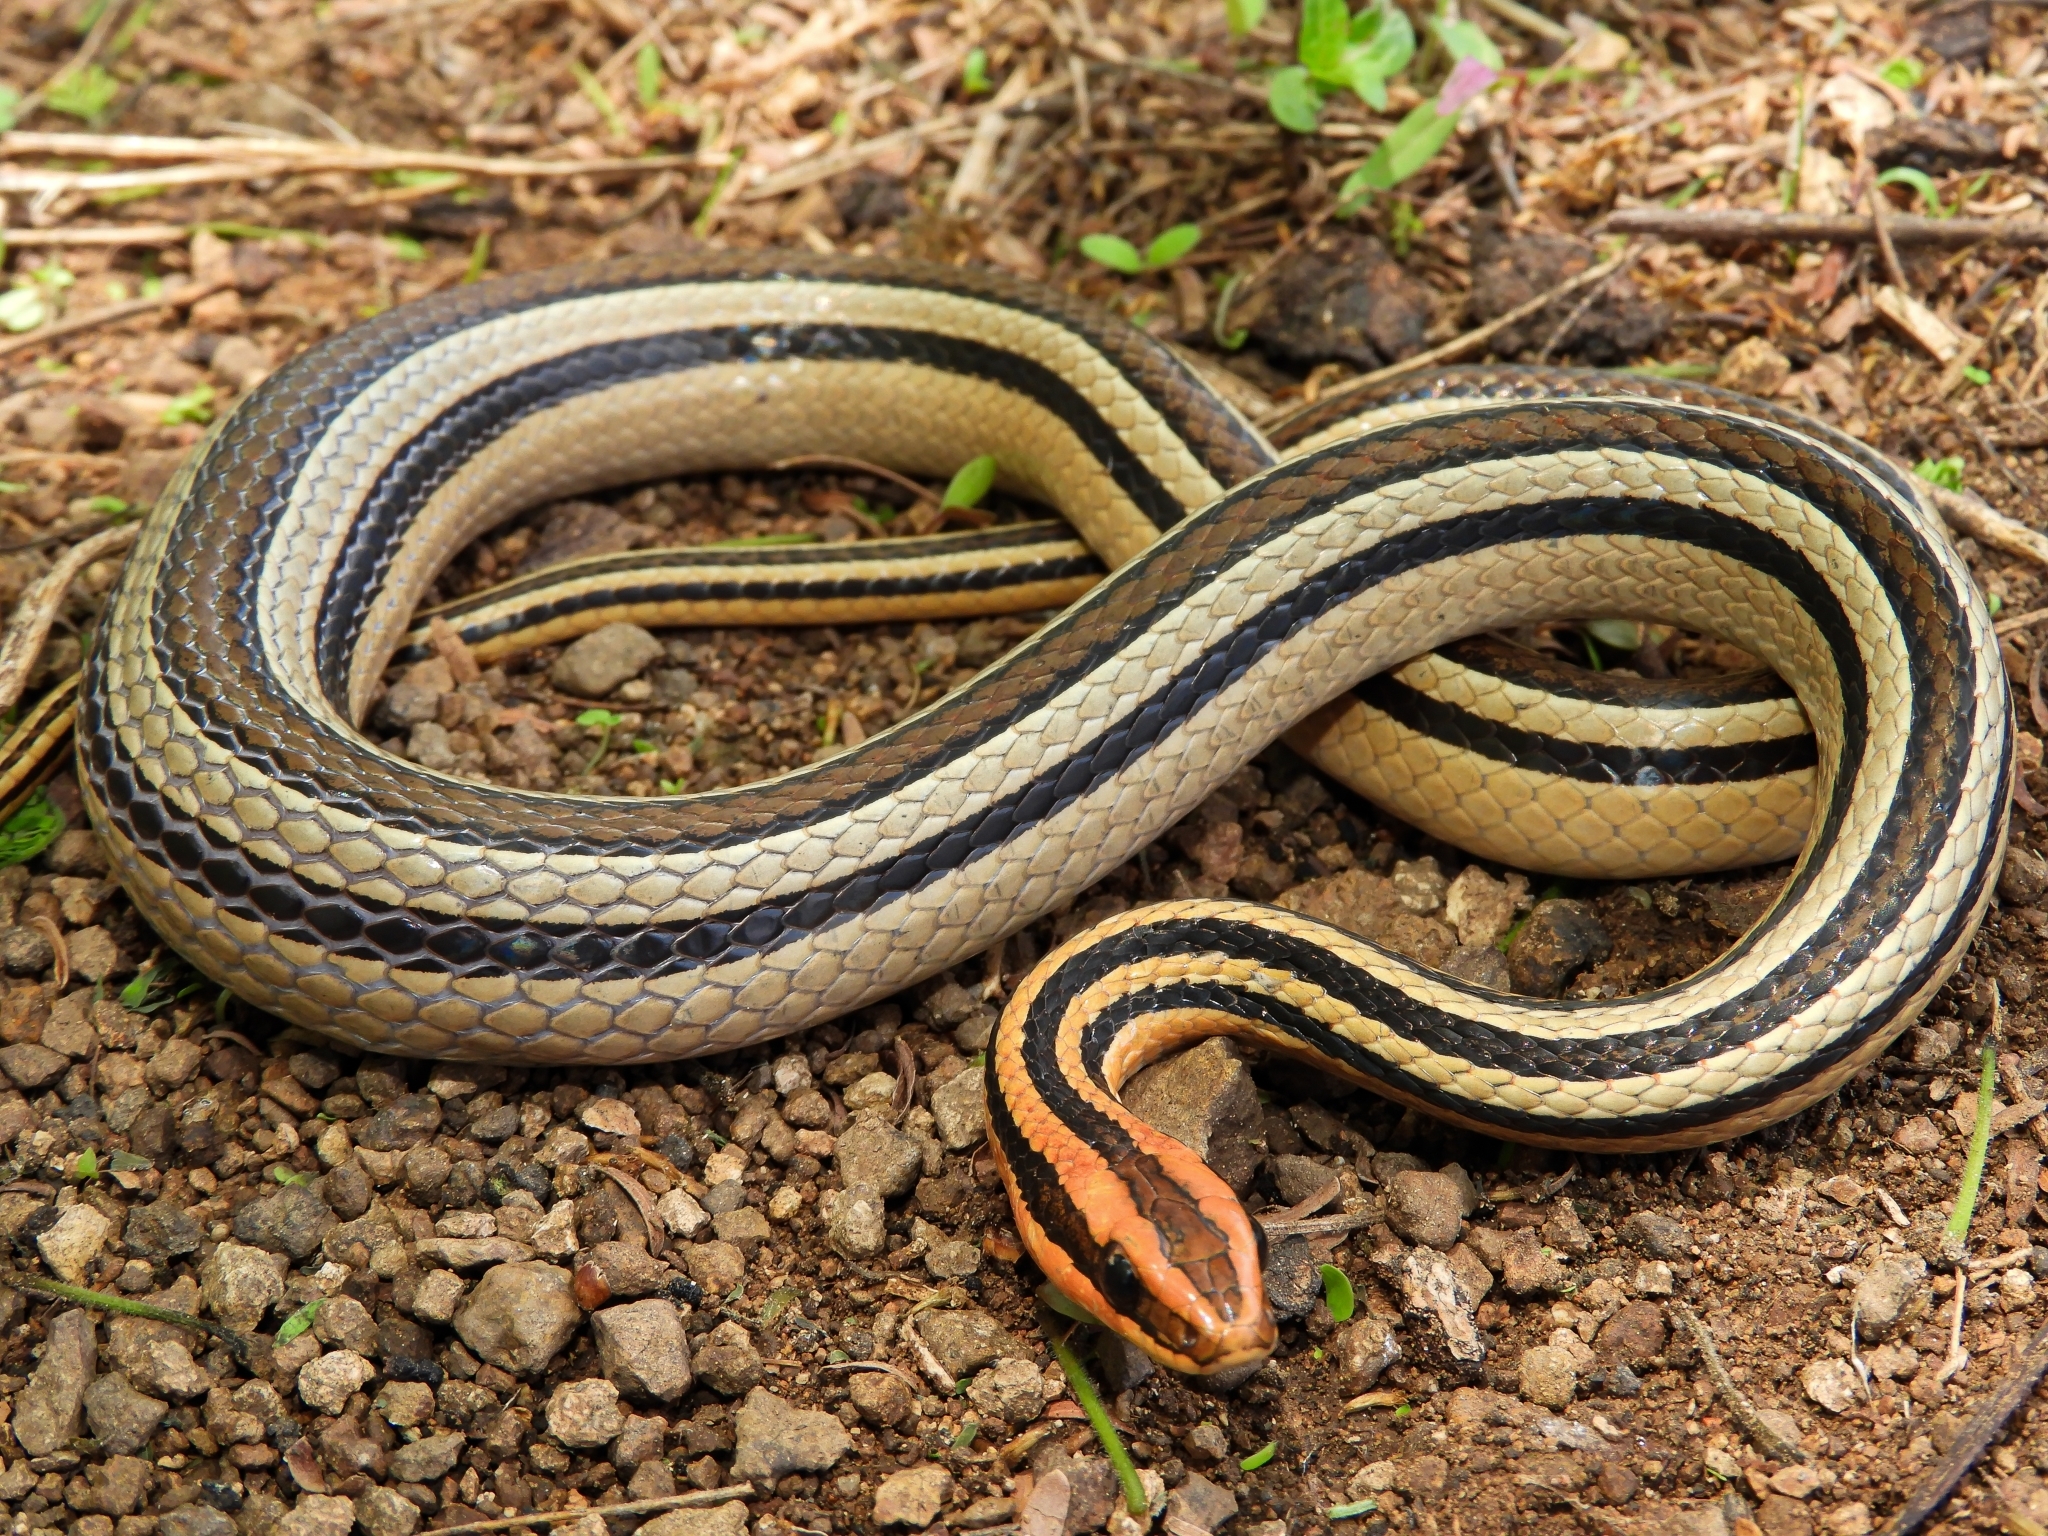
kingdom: Animalia
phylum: Chordata
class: Squamata
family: Colubridae
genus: Lygophis
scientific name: Lygophis lineatus
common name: Lined ground snake
